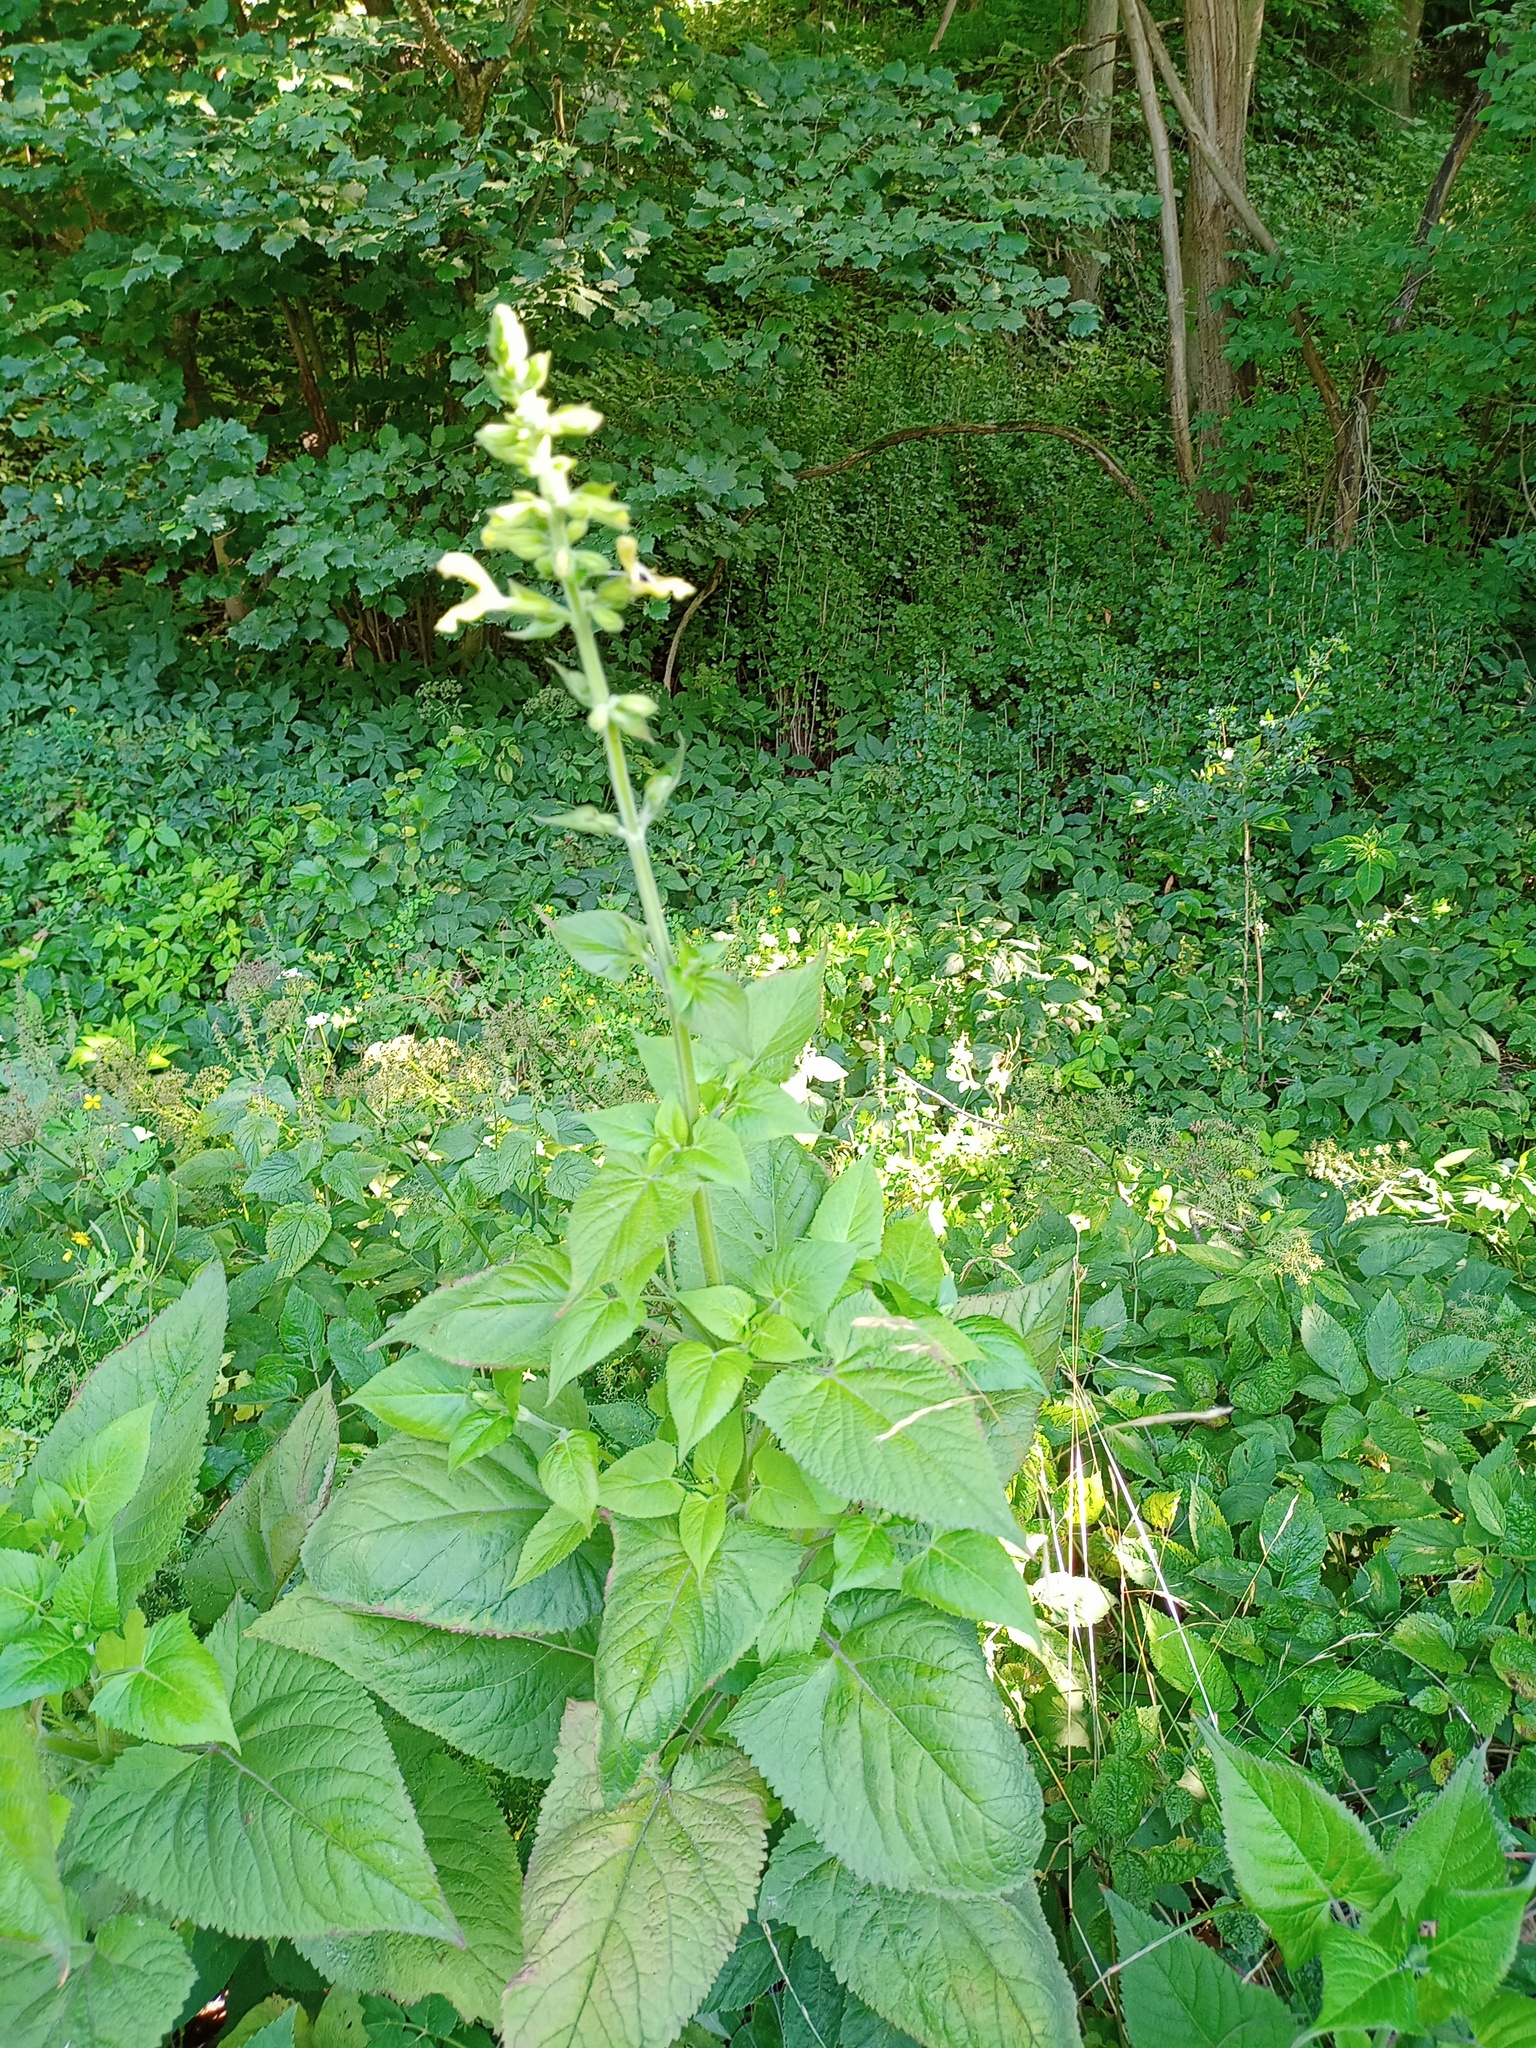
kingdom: Plantae
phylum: Tracheophyta
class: Magnoliopsida
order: Lamiales
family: Lamiaceae
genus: Salvia
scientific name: Salvia glutinosa
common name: Sticky clary
